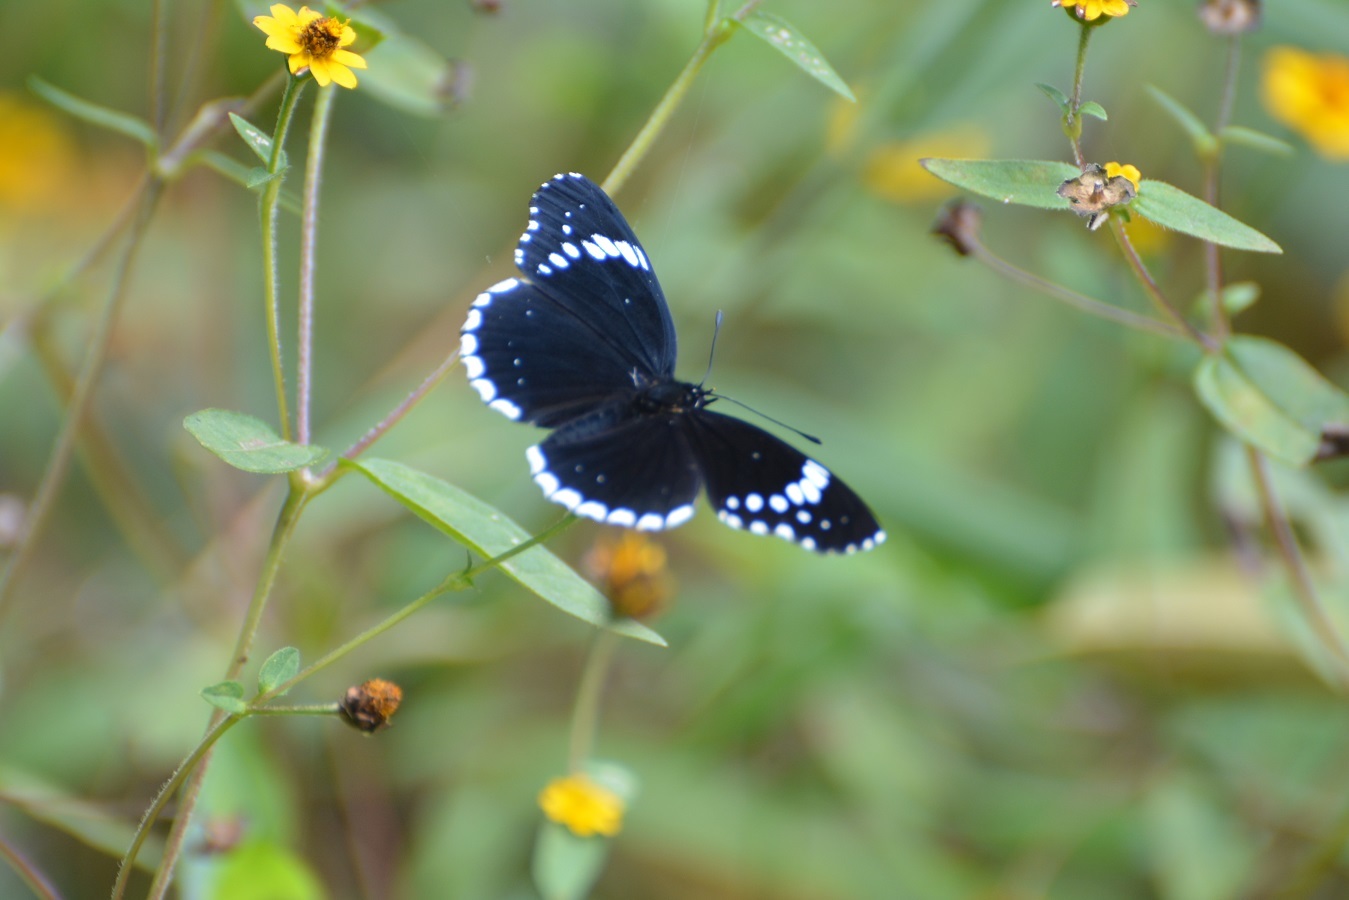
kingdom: Animalia
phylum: Arthropoda
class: Insecta
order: Lepidoptera
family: Nymphalidae
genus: Chlosyne
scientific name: Chlosyne hippodrome
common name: Simple patch
